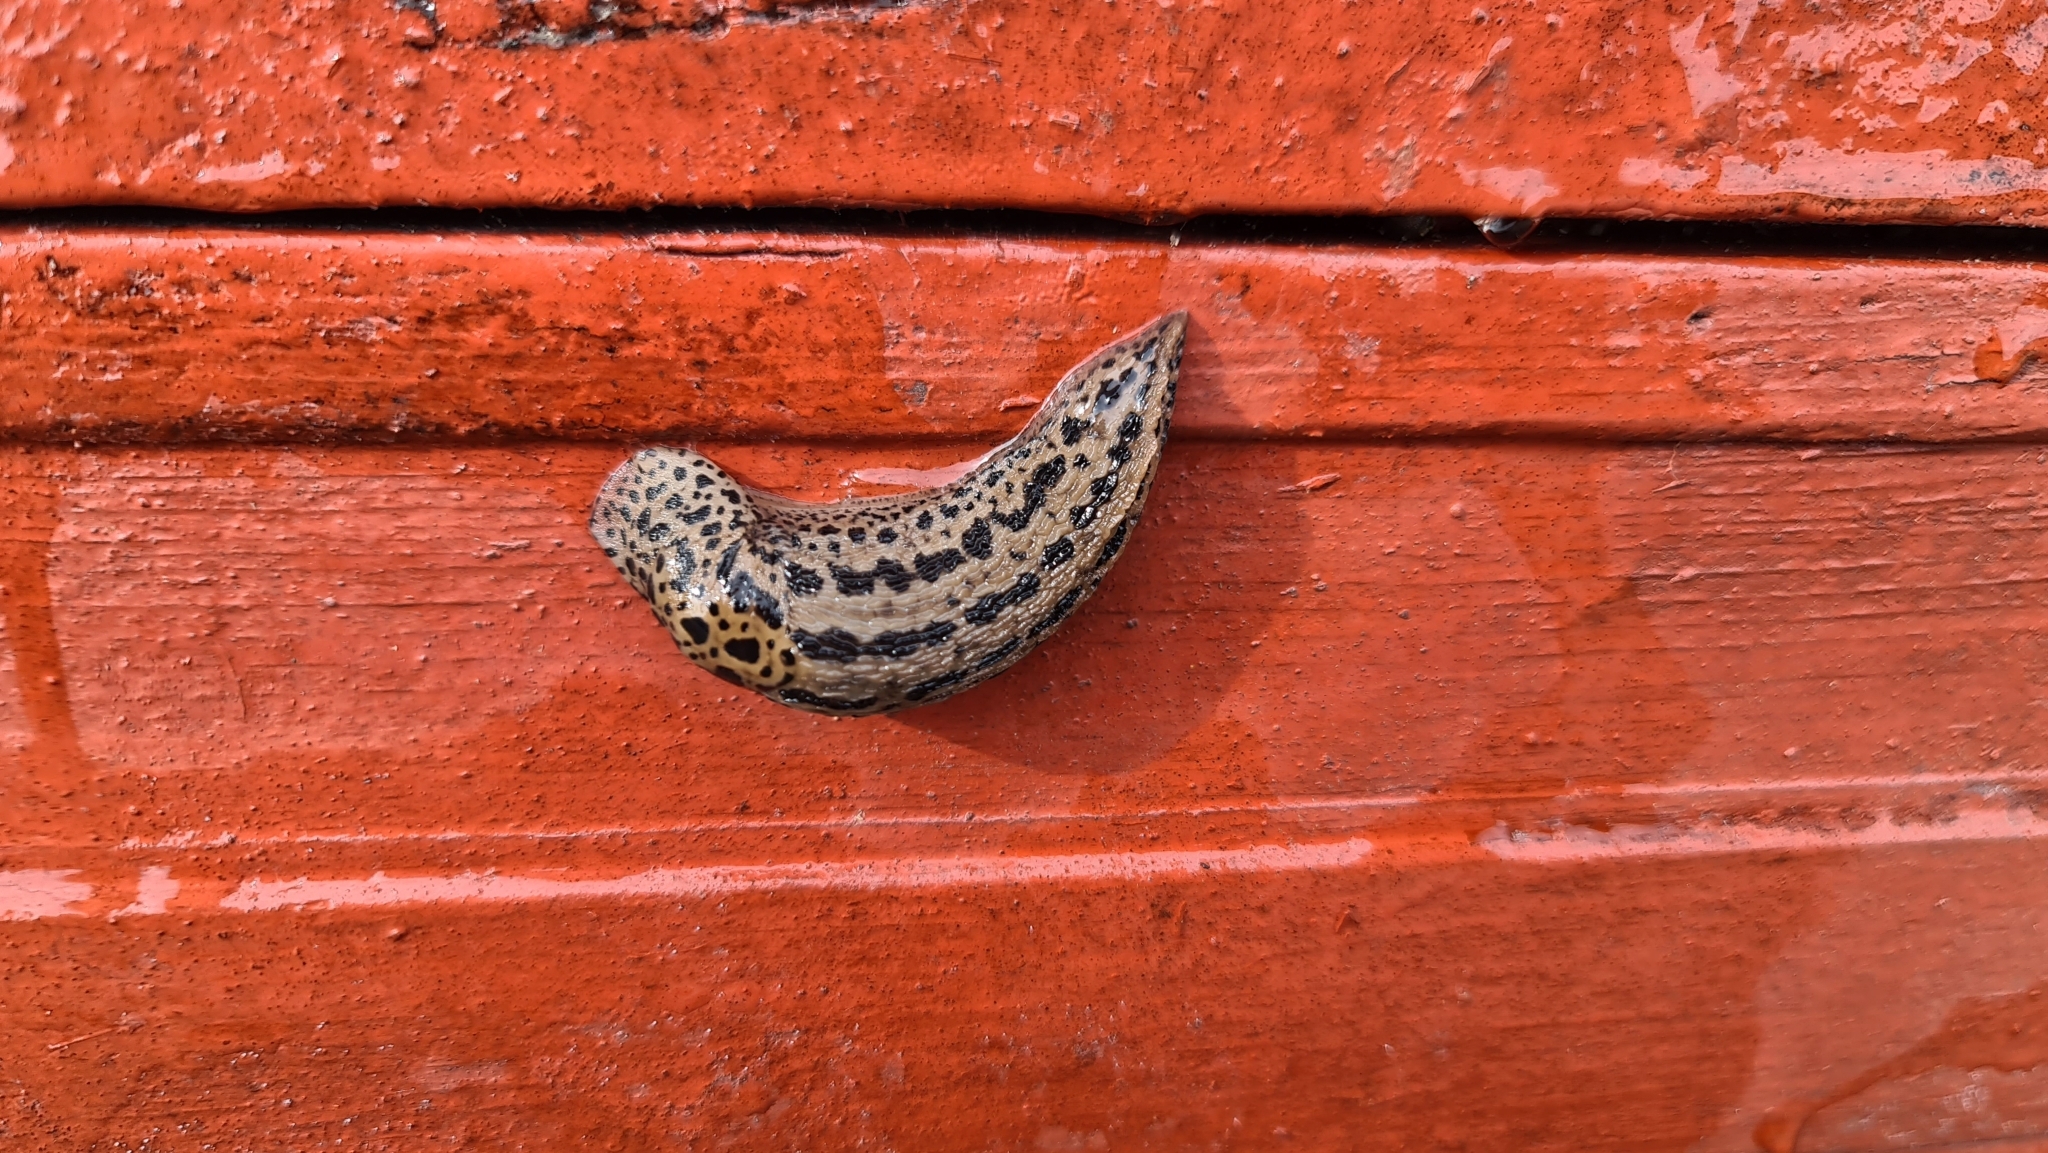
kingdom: Animalia
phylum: Mollusca
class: Gastropoda
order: Stylommatophora
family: Limacidae
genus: Limax
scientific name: Limax maximus
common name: Great grey slug
